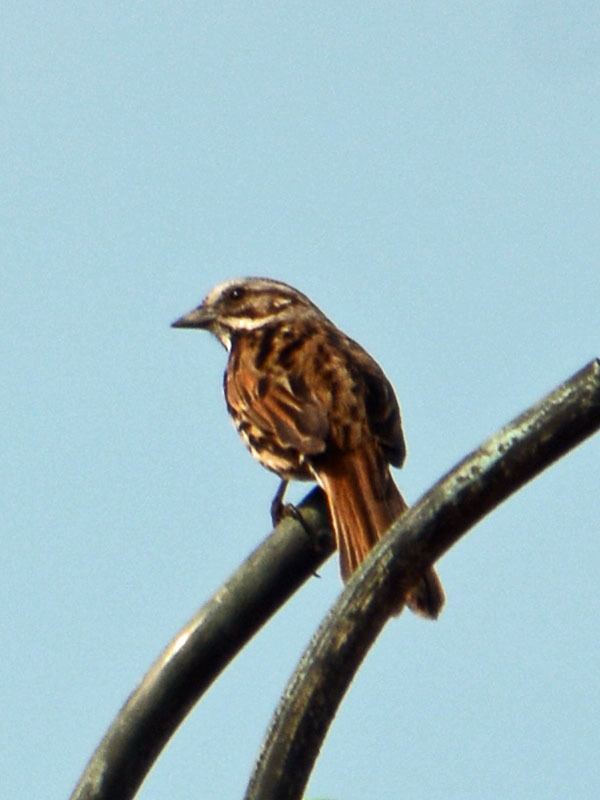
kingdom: Animalia
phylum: Chordata
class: Aves
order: Passeriformes
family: Passerellidae
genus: Melospiza
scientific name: Melospiza melodia
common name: Song sparrow
